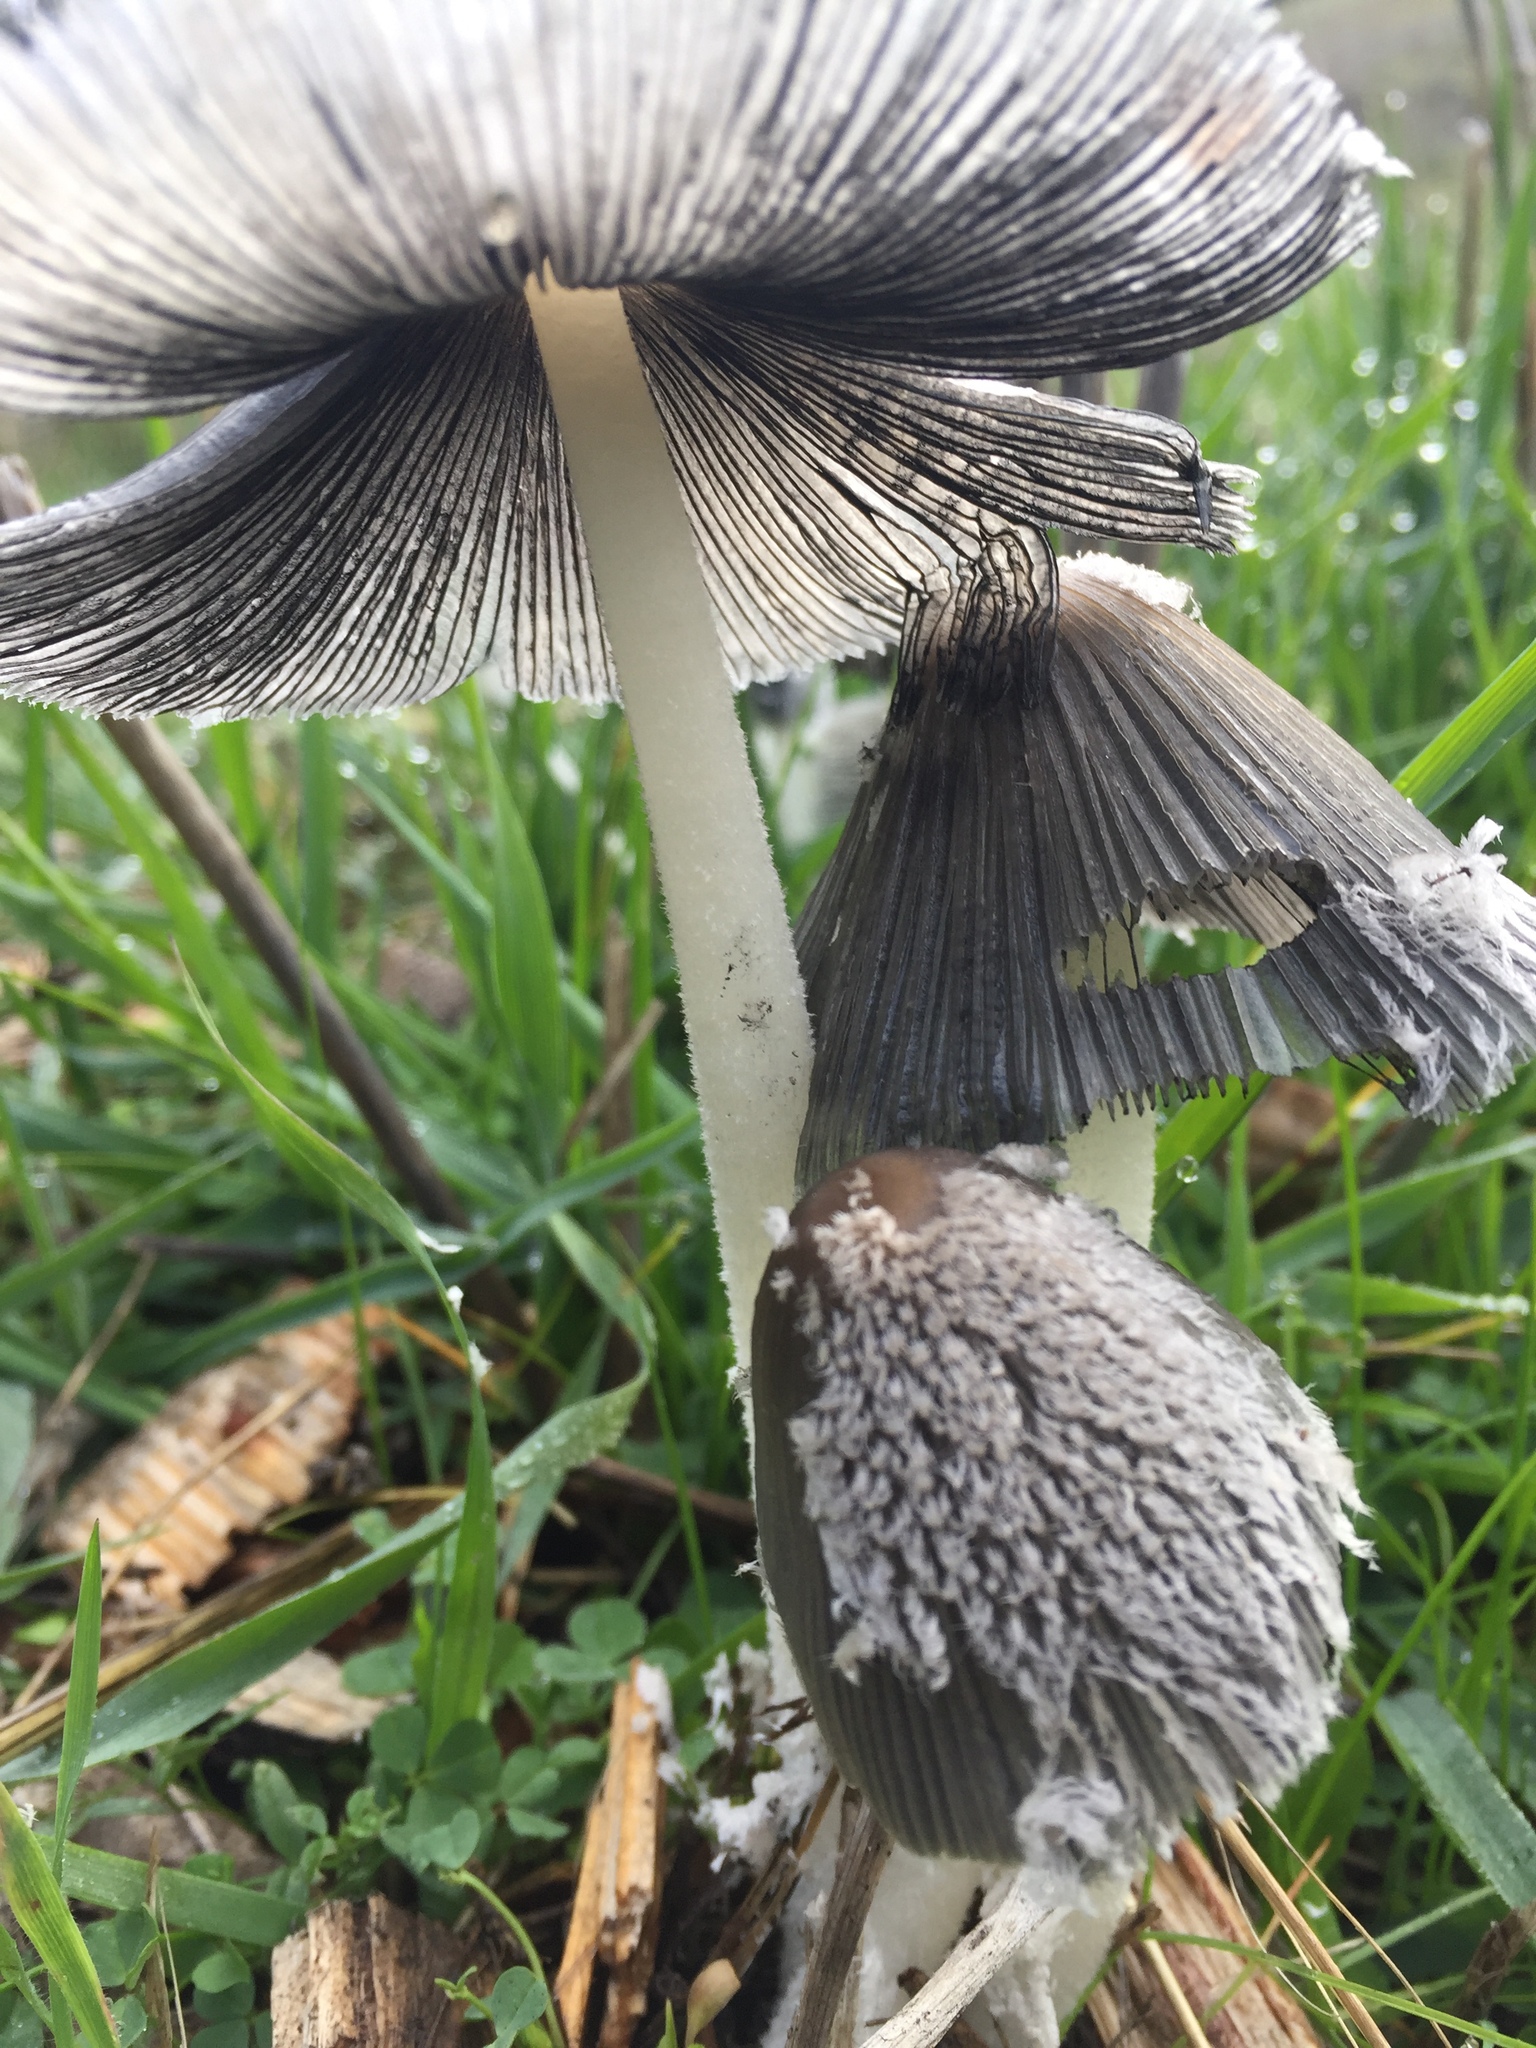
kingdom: Fungi
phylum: Basidiomycota
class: Agaricomycetes
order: Agaricales
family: Psathyrellaceae
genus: Coprinopsis
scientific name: Coprinopsis lagopus
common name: Hare'sfoot inkcap
